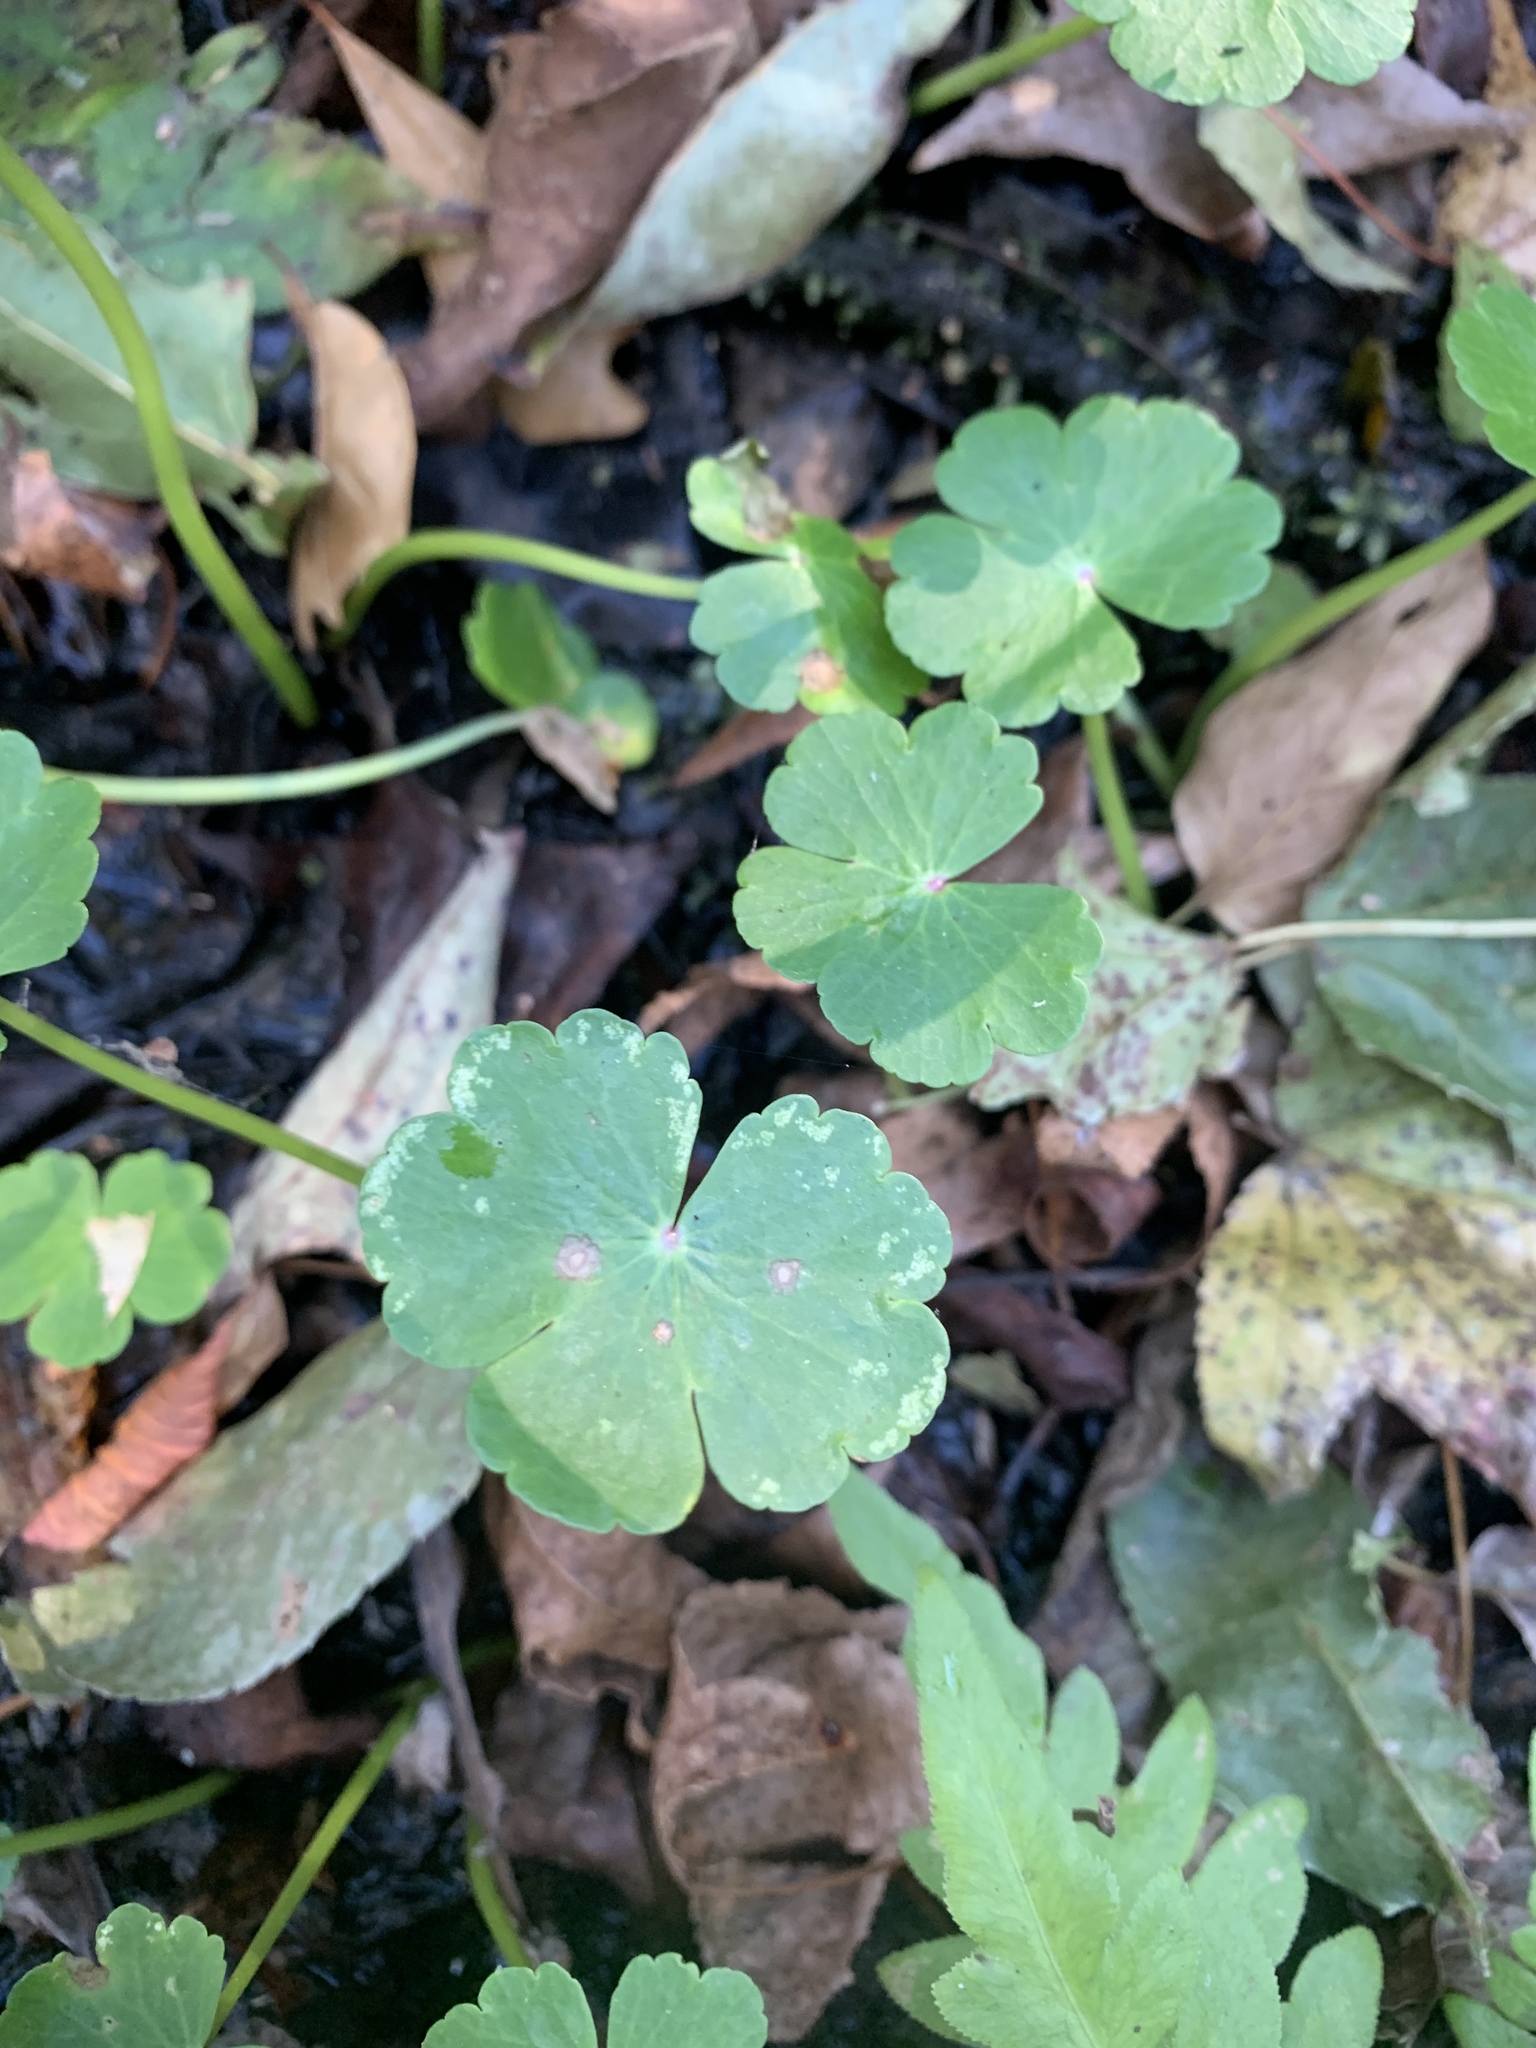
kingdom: Plantae
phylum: Tracheophyta
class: Magnoliopsida
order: Apiales
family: Araliaceae
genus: Hydrocotyle
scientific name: Hydrocotyle ranunculoides
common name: Floating pennywort
